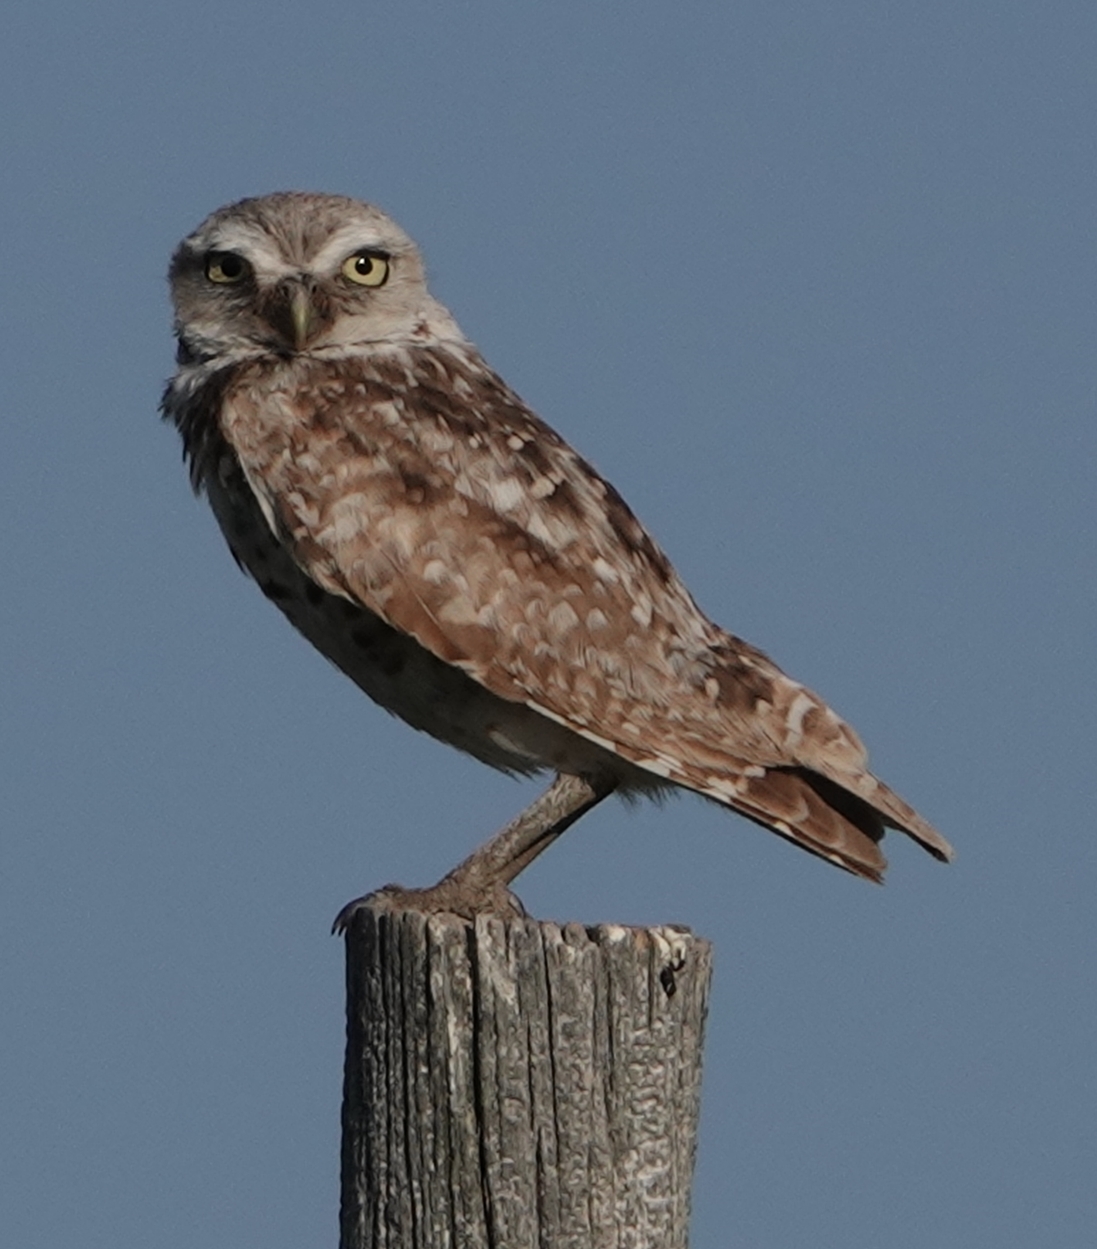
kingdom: Animalia
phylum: Chordata
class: Aves
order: Strigiformes
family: Strigidae
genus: Athene
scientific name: Athene cunicularia
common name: Burrowing owl
